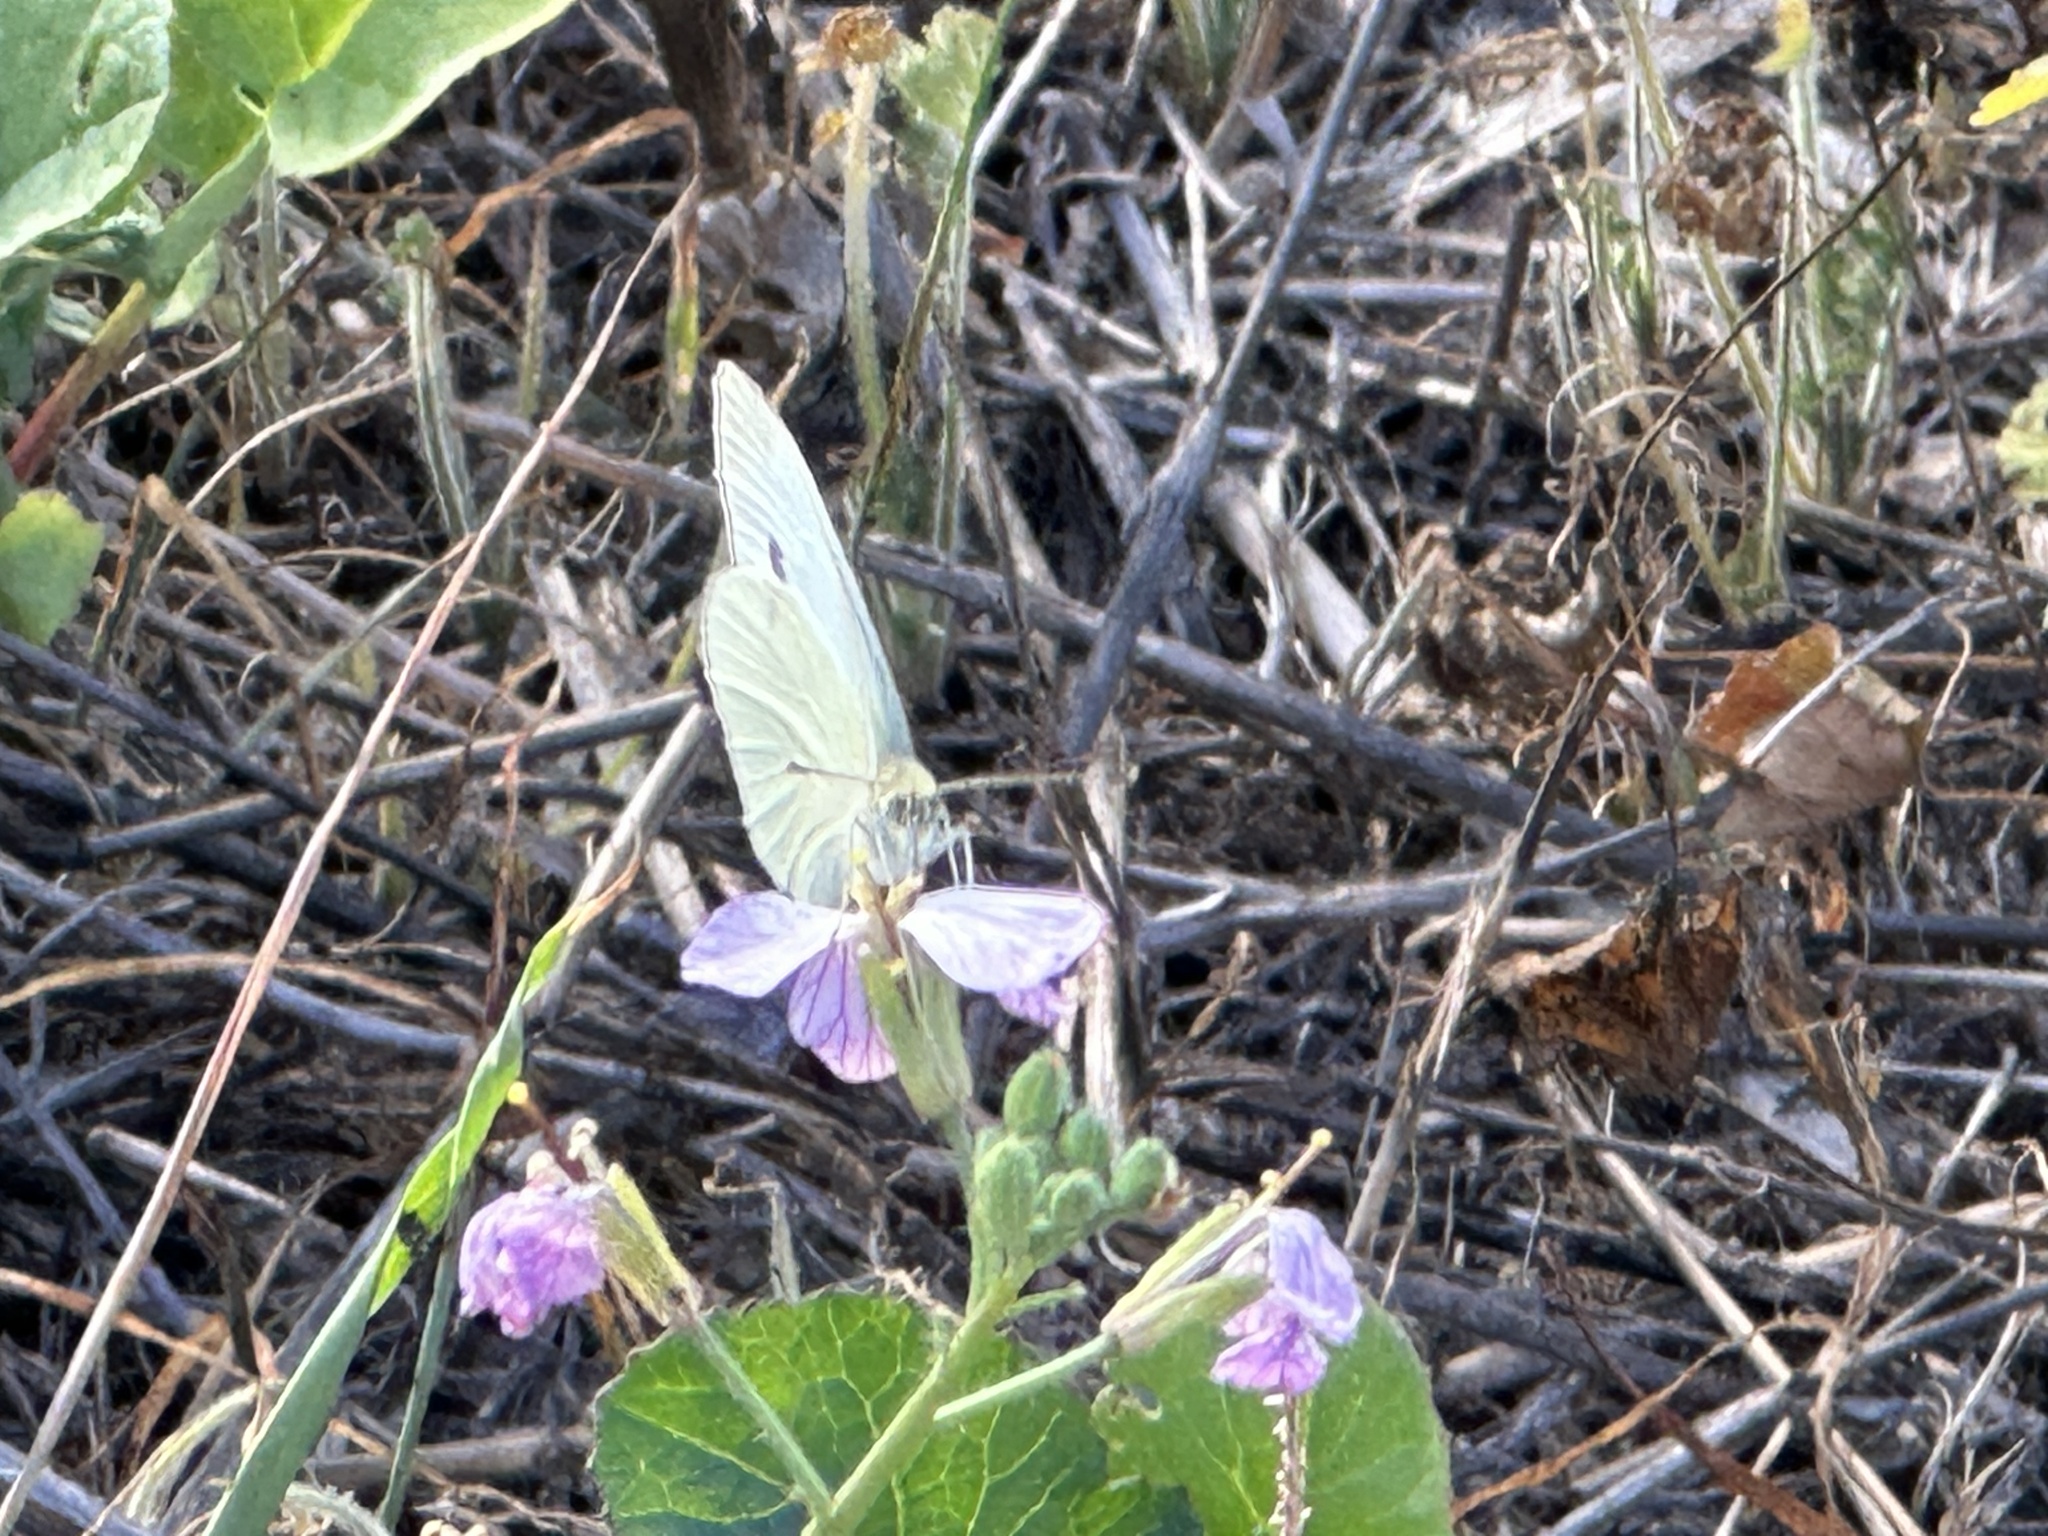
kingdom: Animalia
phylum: Arthropoda
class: Insecta
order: Lepidoptera
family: Pieridae
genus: Pieris
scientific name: Pieris rapae
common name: Small white
